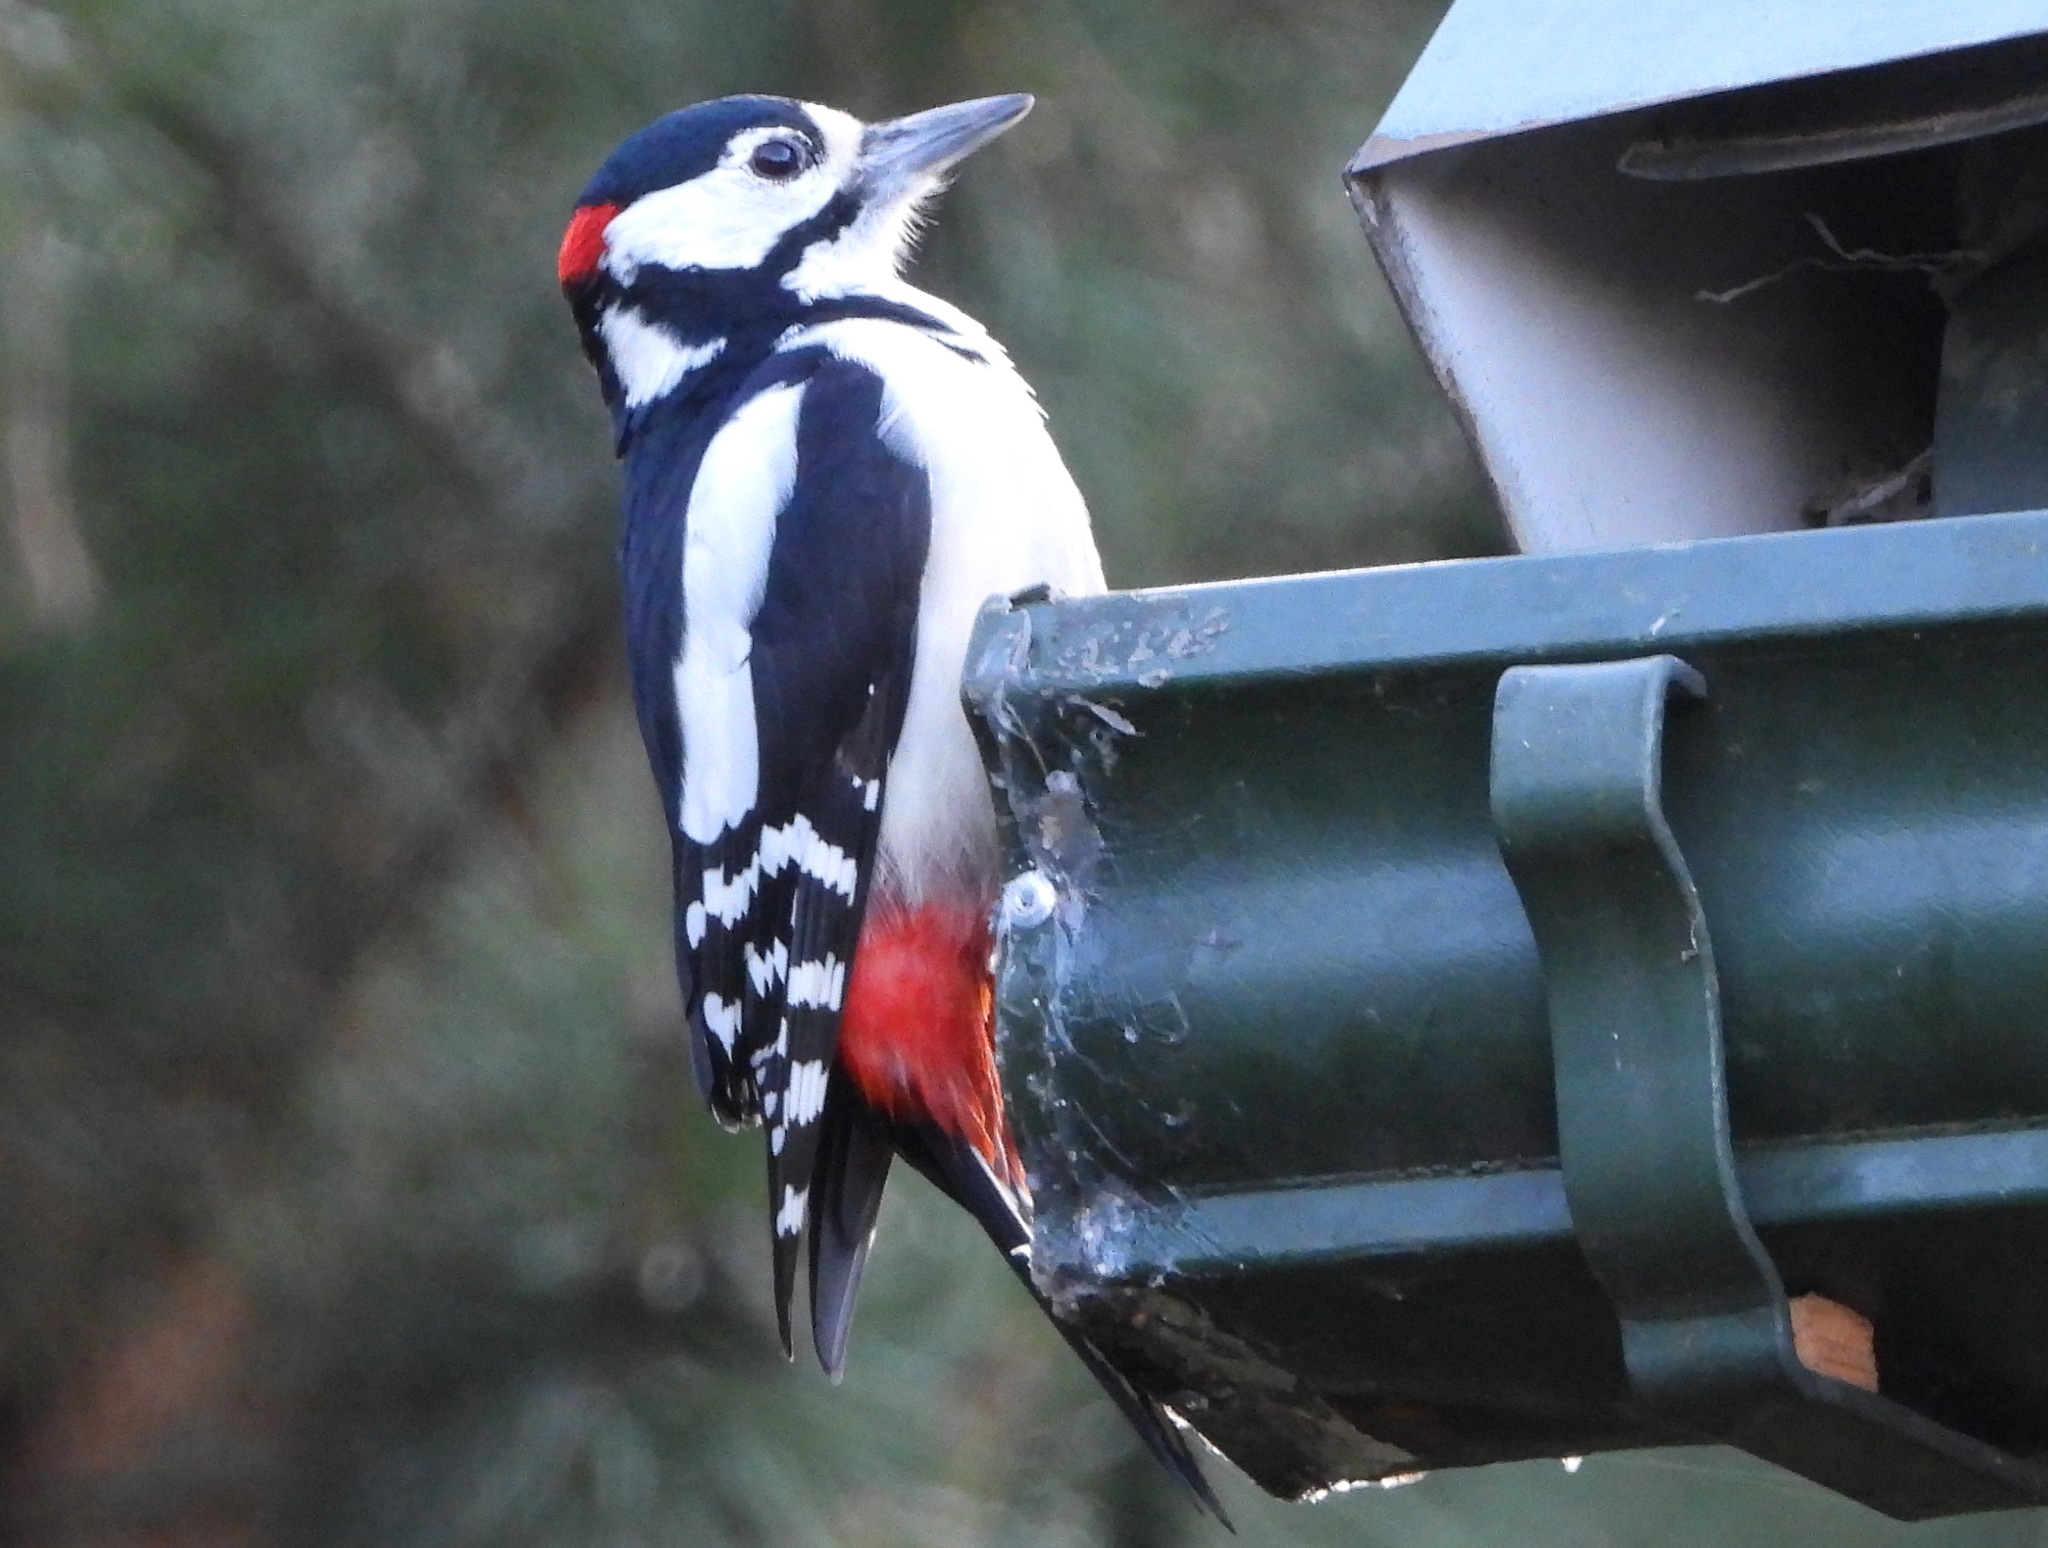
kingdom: Animalia
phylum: Chordata
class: Aves
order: Piciformes
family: Picidae
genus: Dendrocopos
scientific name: Dendrocopos major
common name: Great spotted woodpecker
